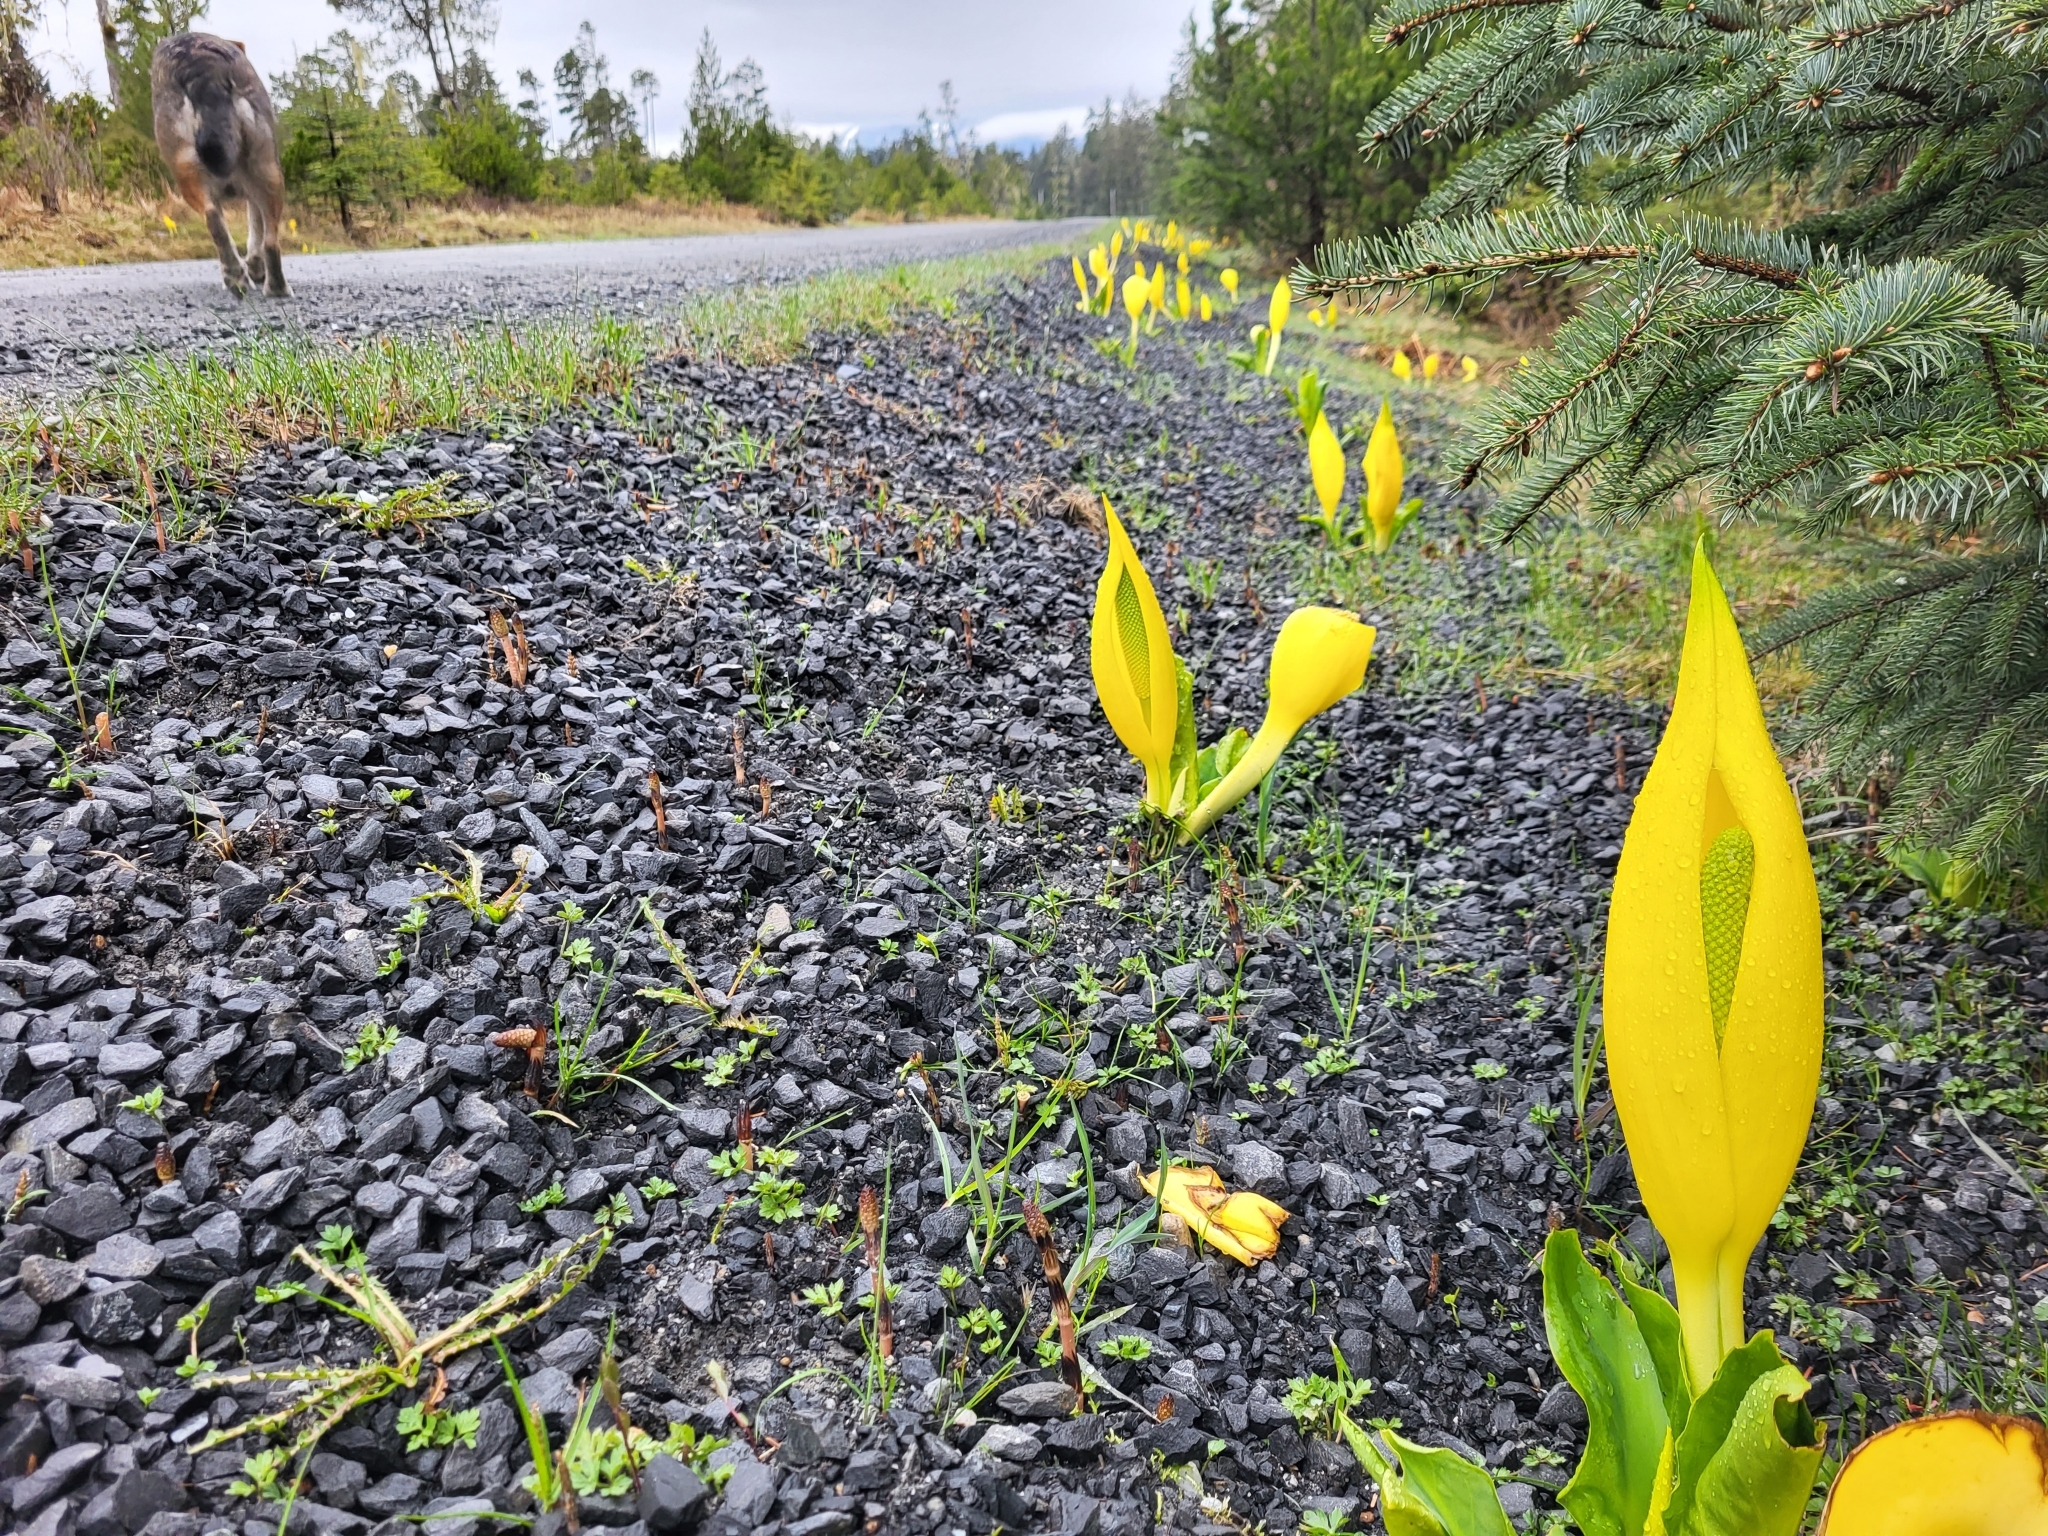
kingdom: Plantae
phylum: Tracheophyta
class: Liliopsida
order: Alismatales
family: Araceae
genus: Lysichiton
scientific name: Lysichiton americanus
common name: American skunk cabbage
